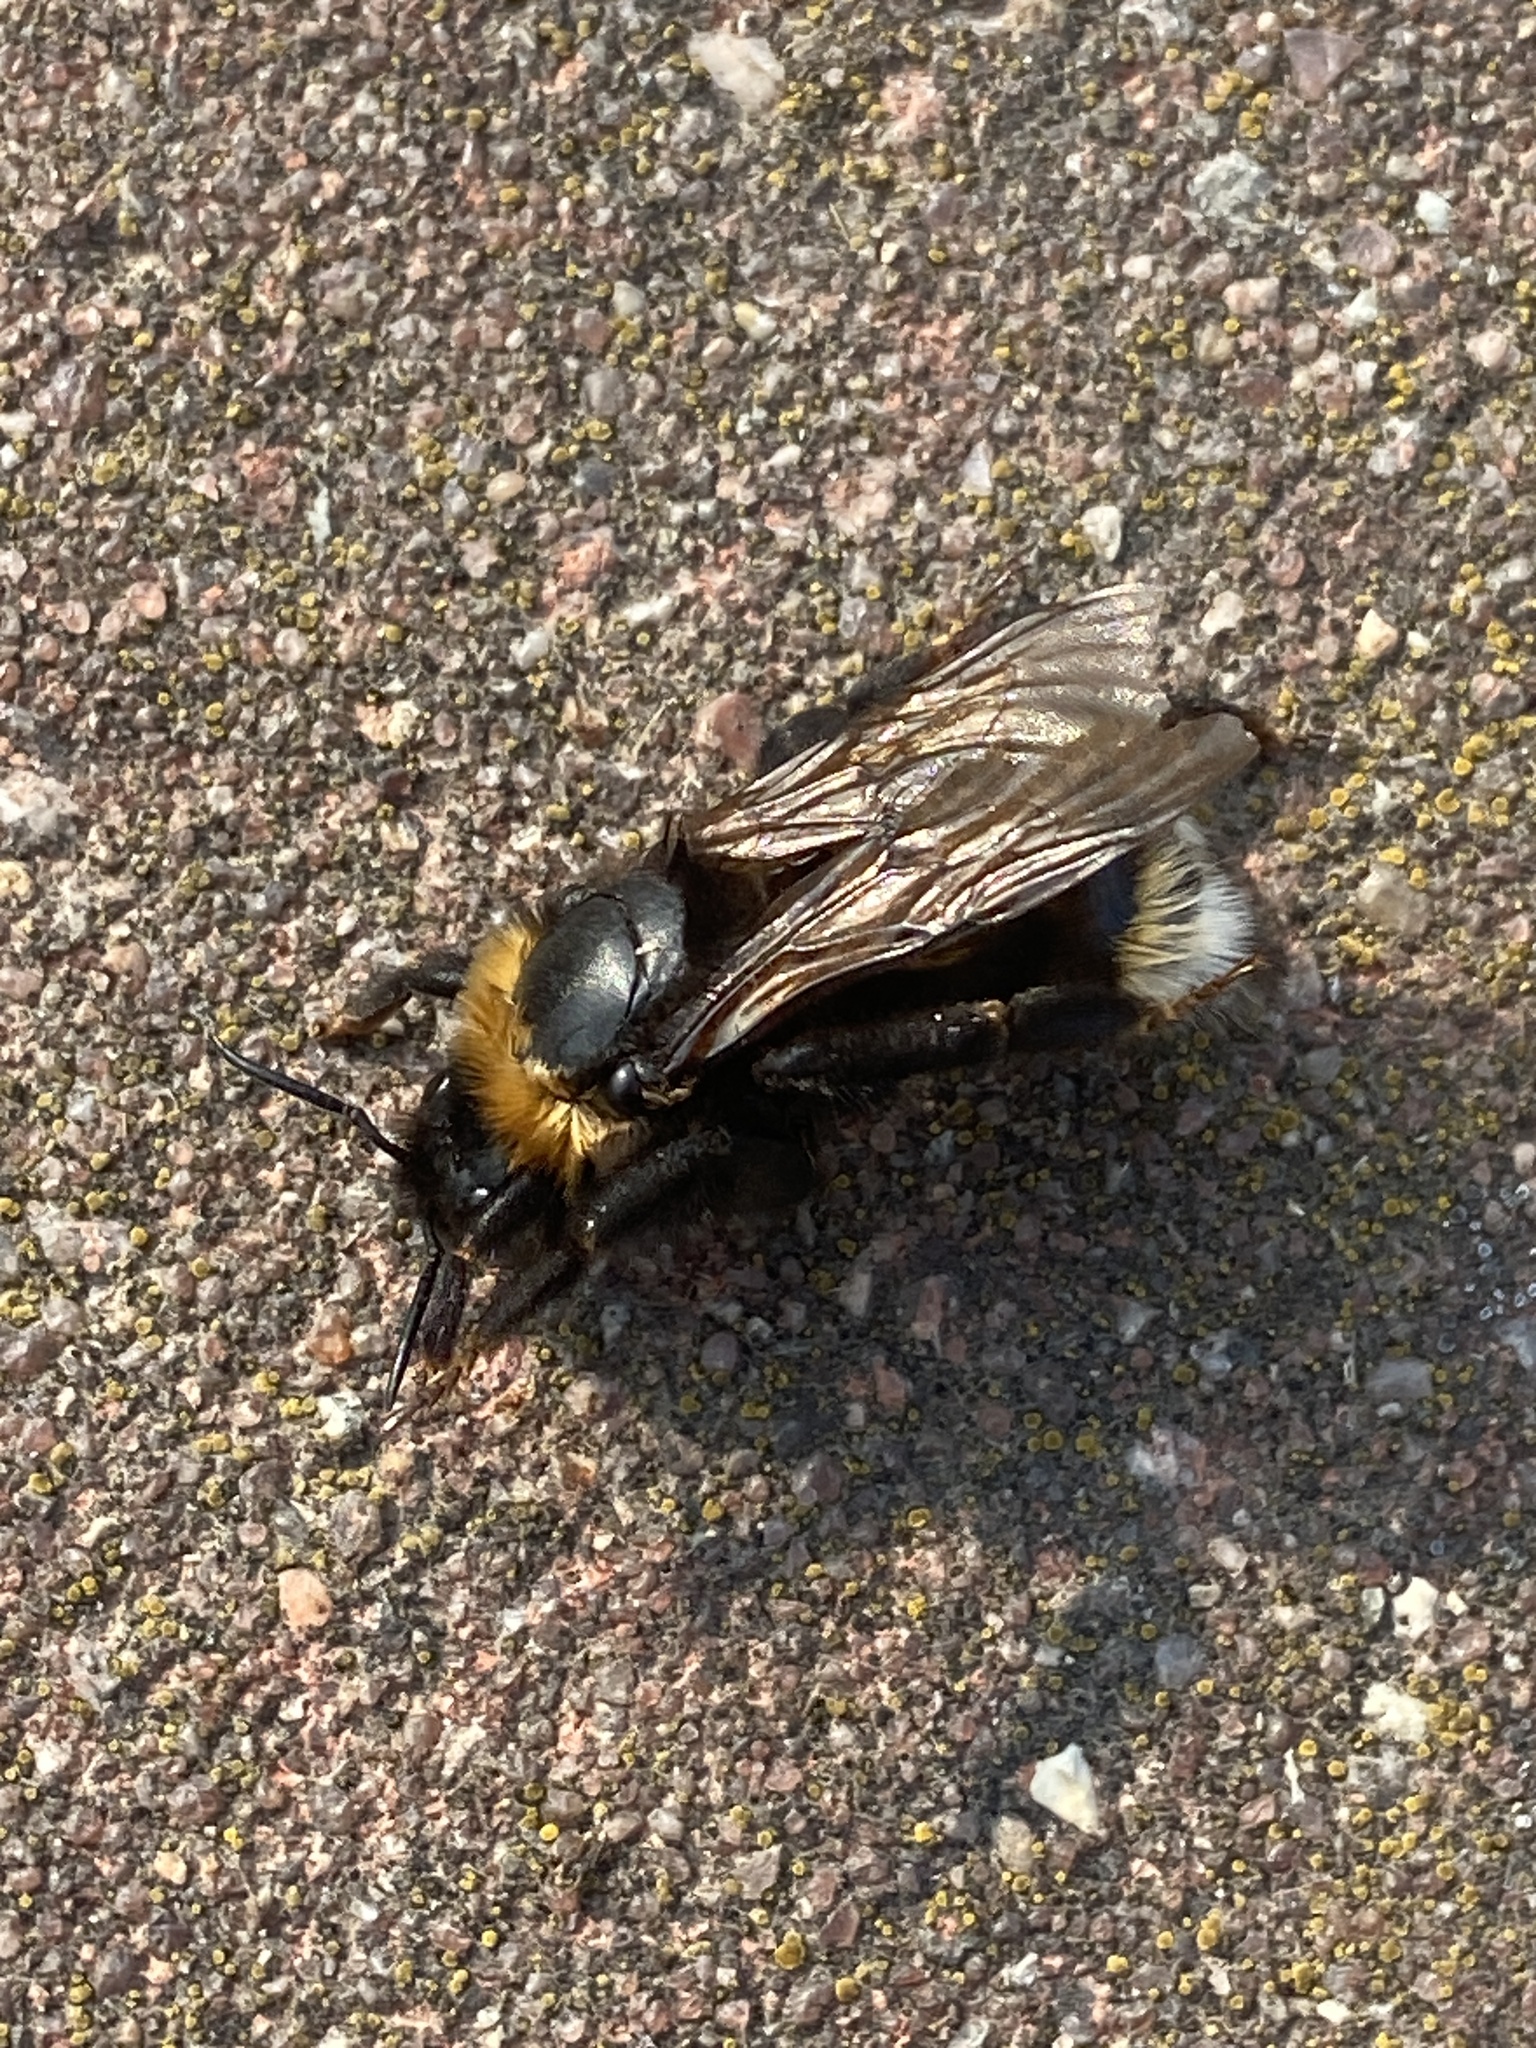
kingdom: Animalia
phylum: Arthropoda
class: Insecta
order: Hymenoptera
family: Apidae
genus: Bombus
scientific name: Bombus vestalis
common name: Vestal cuckoo bee
